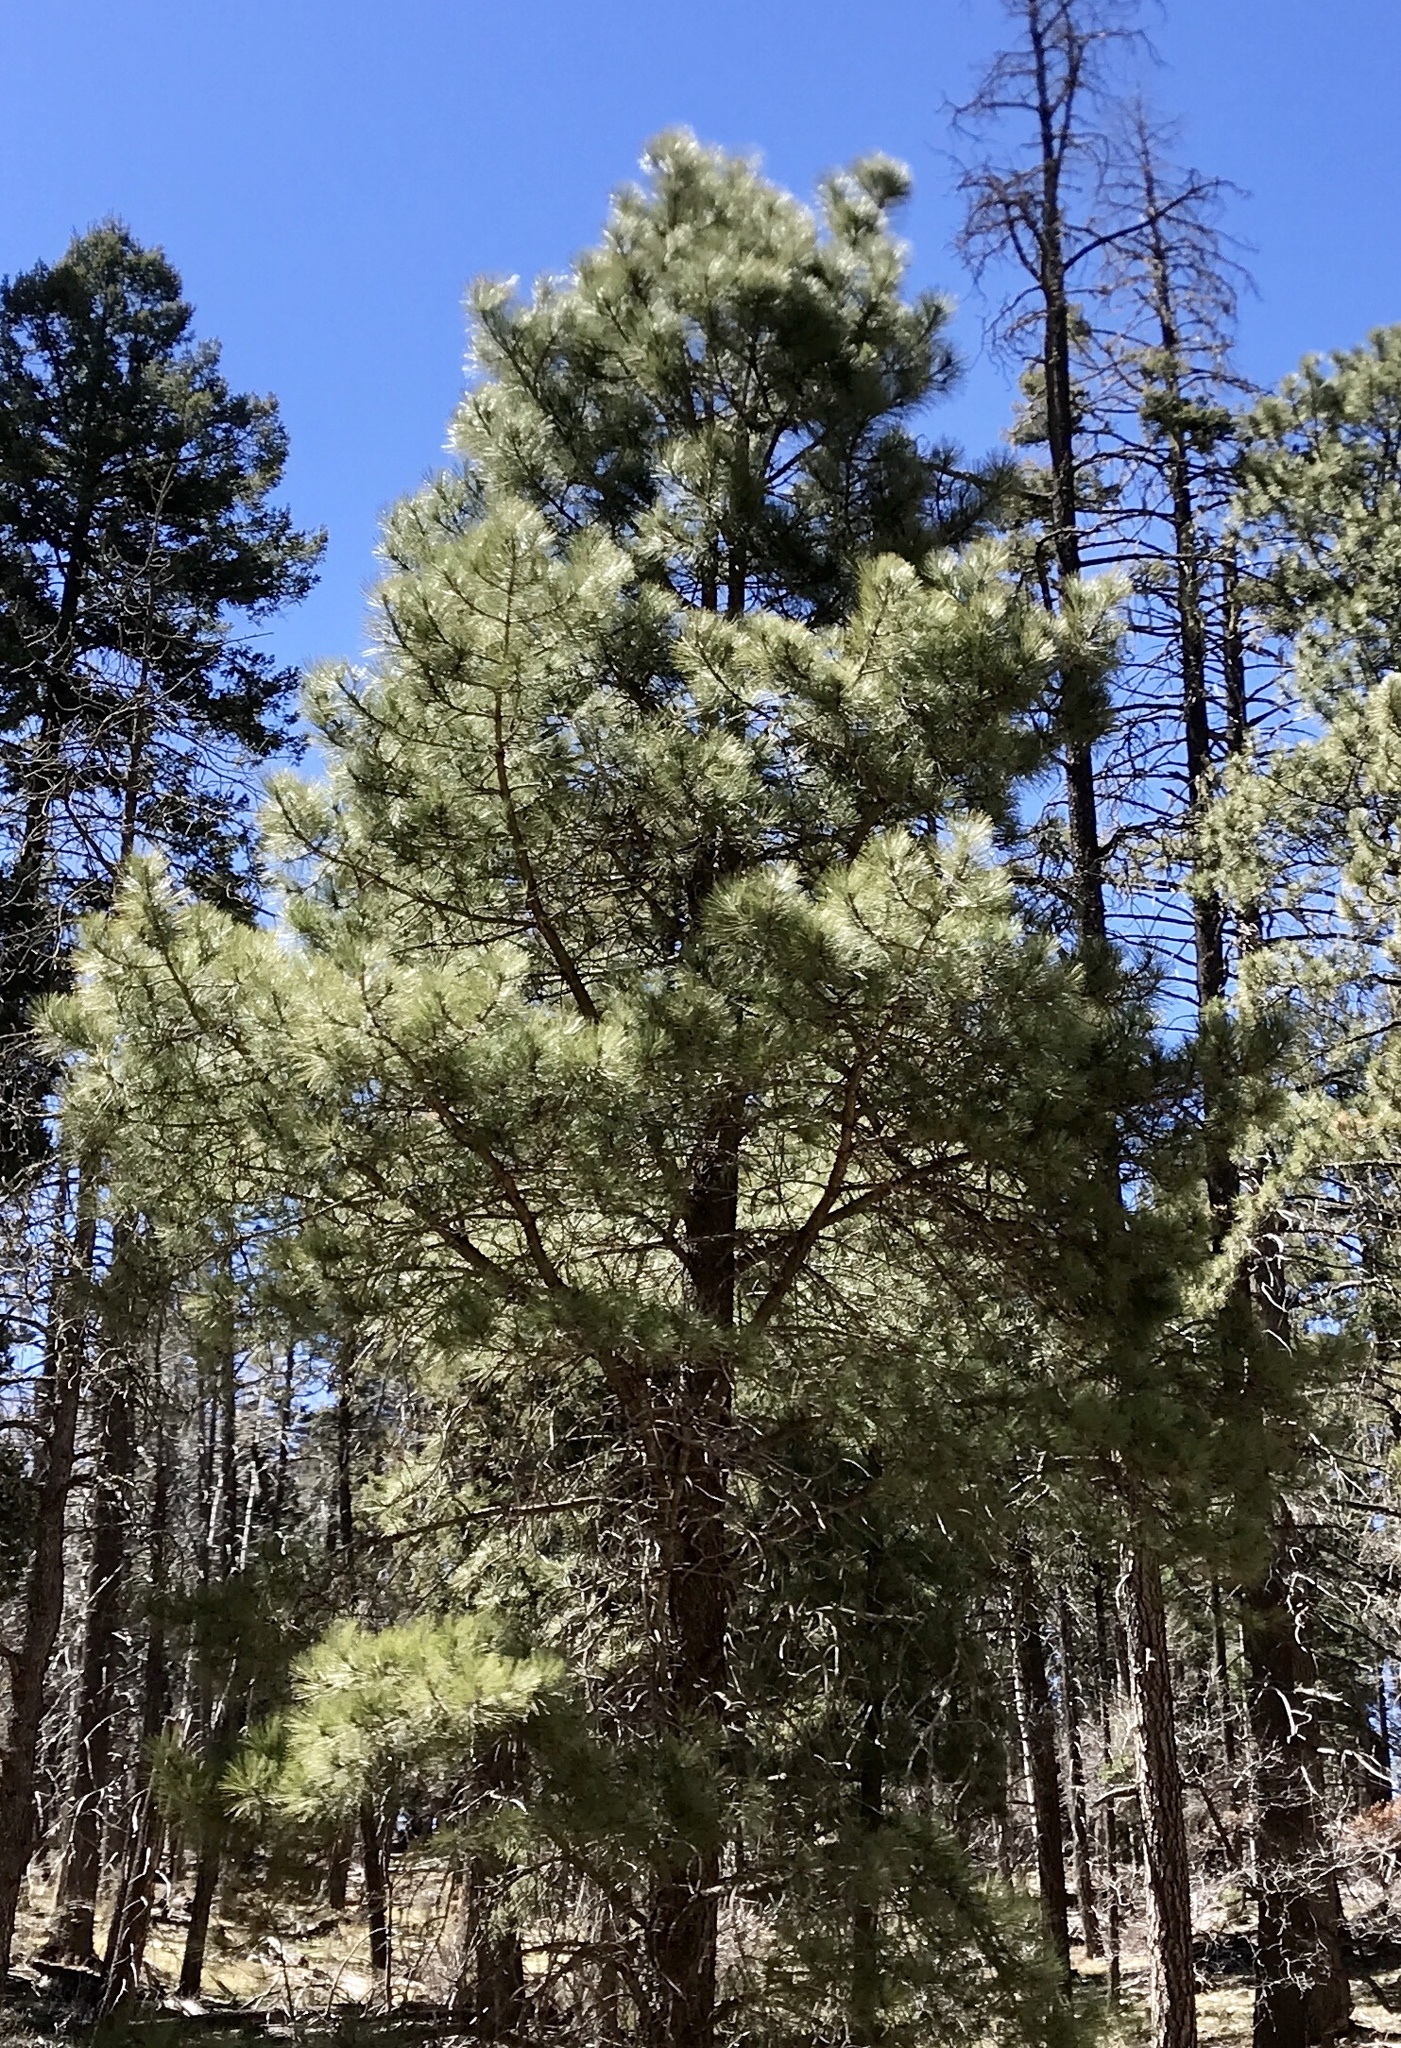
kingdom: Plantae
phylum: Tracheophyta
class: Pinopsida
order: Pinales
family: Pinaceae
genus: Pinus
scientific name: Pinus ponderosa
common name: Western yellow-pine
